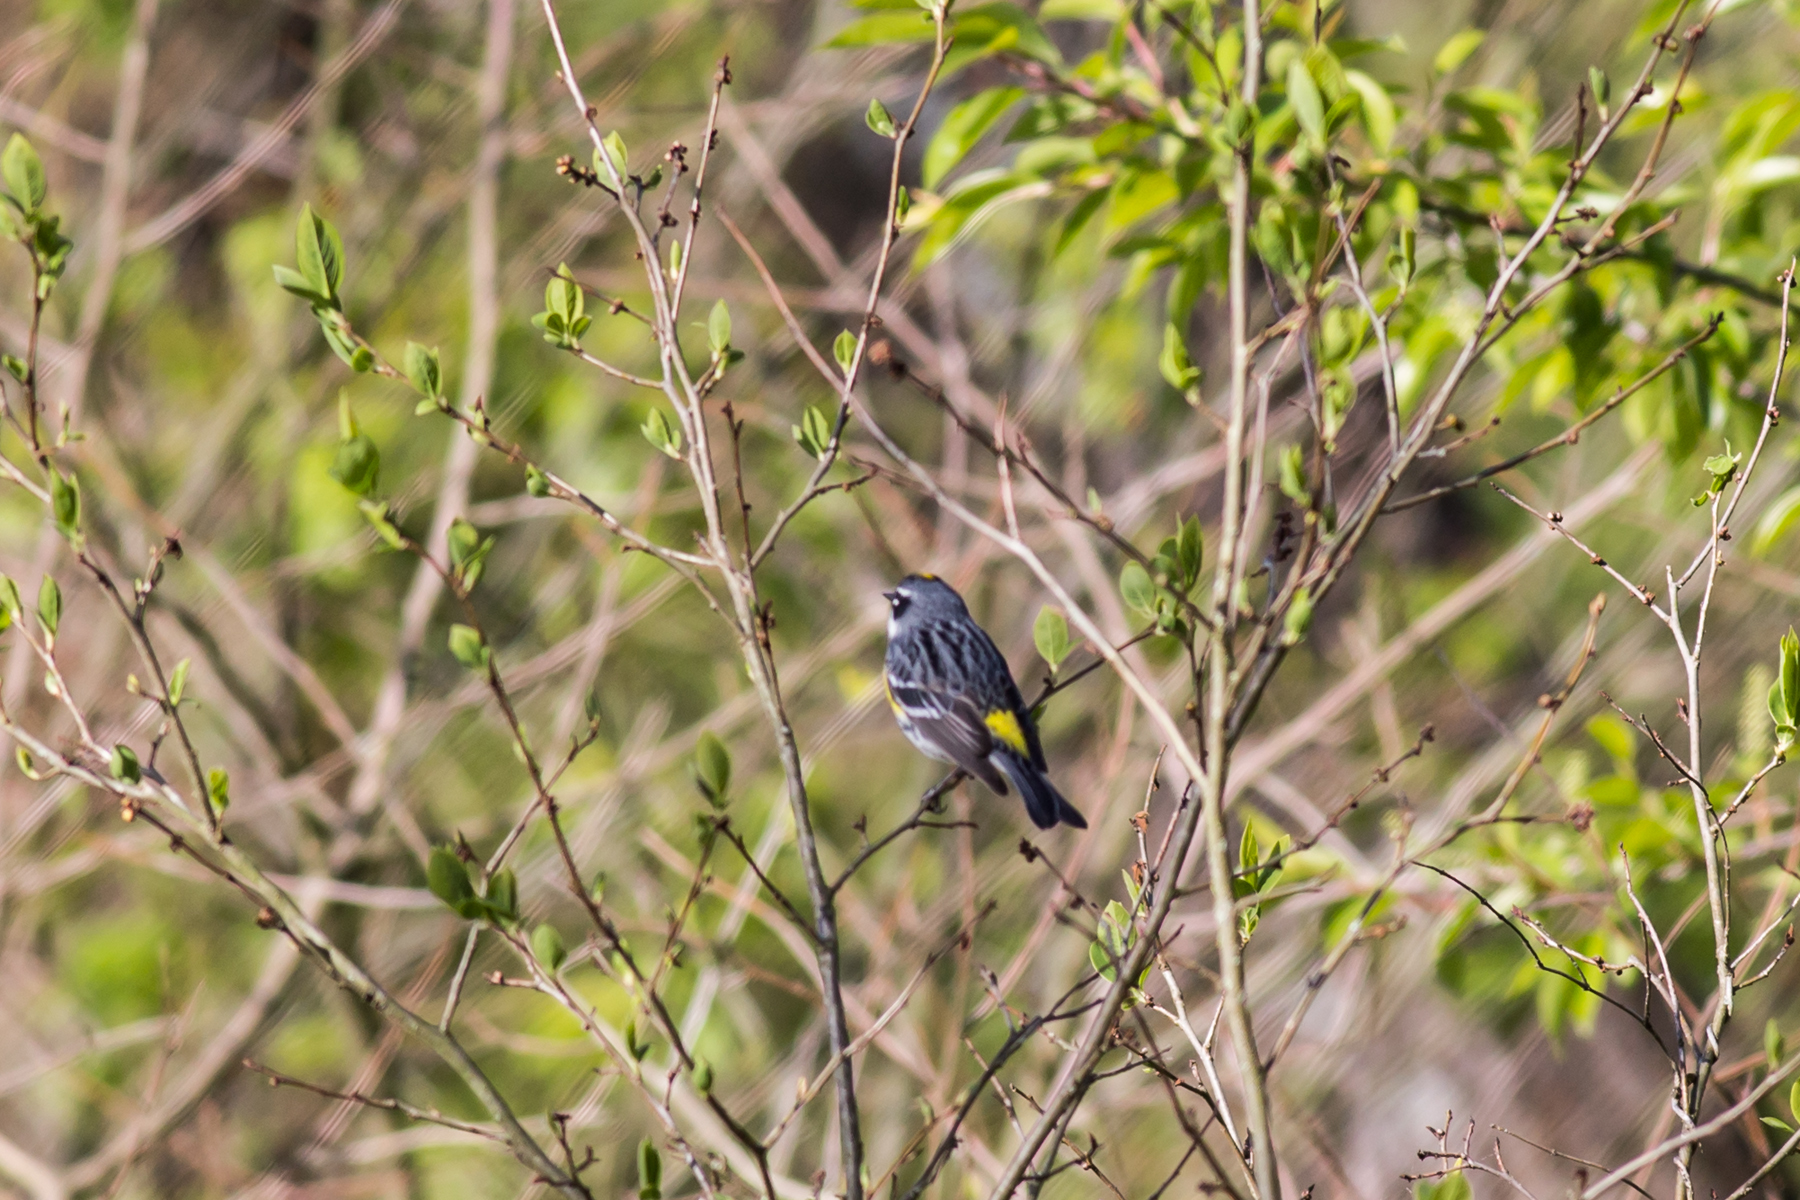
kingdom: Animalia
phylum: Chordata
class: Aves
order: Passeriformes
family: Parulidae
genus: Setophaga
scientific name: Setophaga coronata
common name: Myrtle warbler
